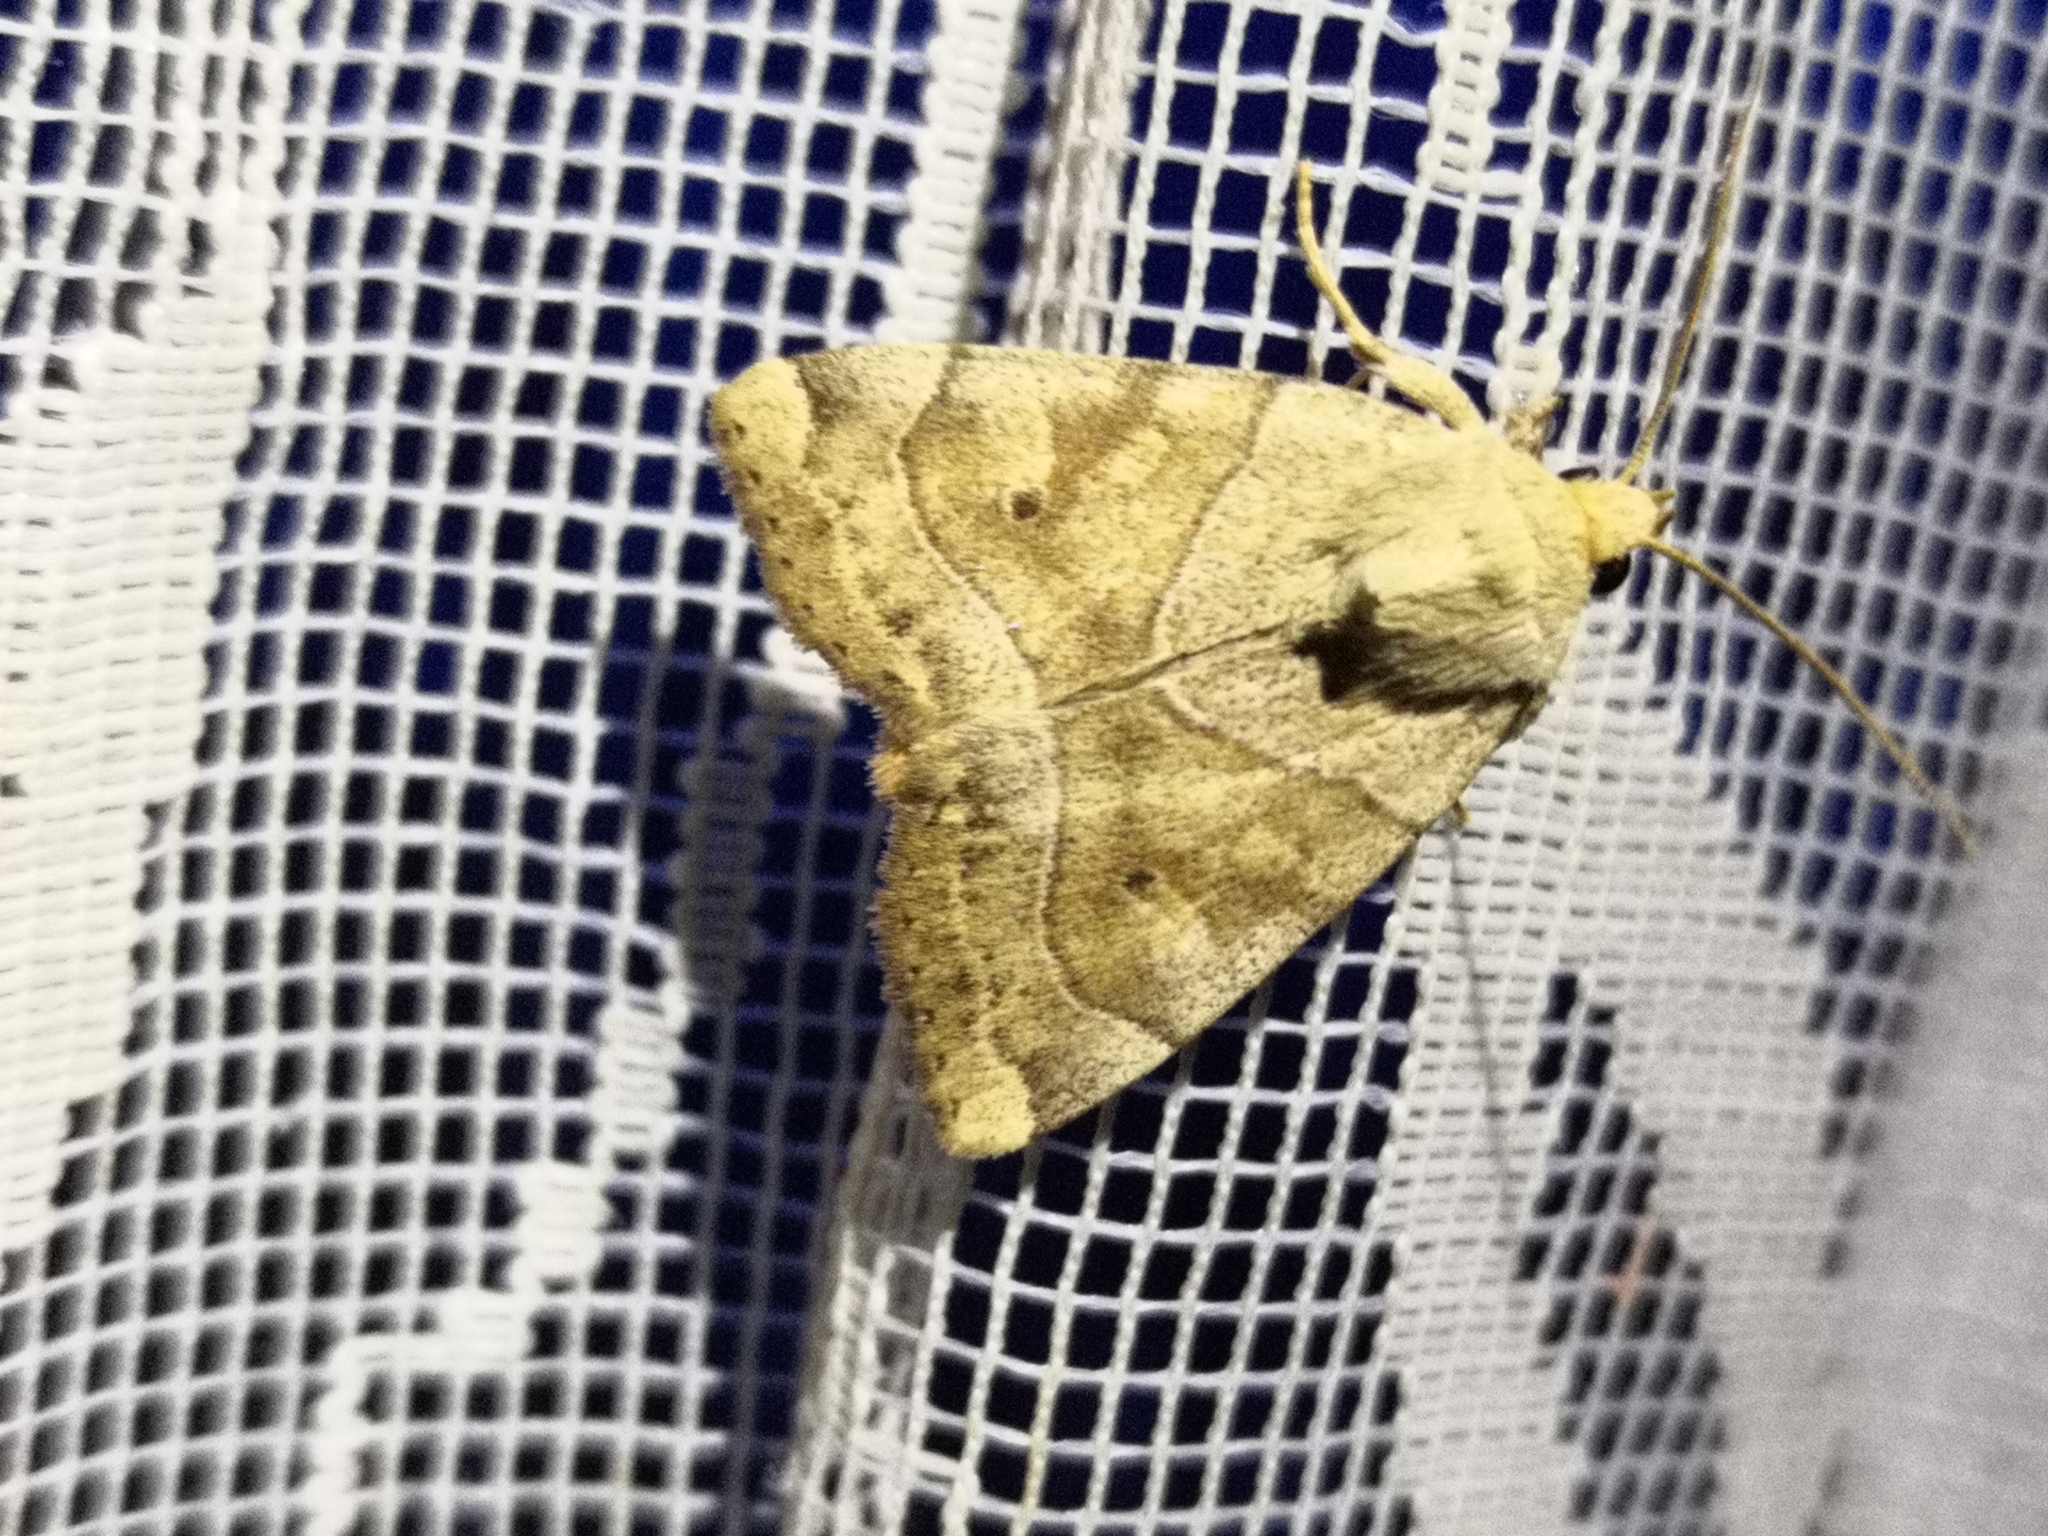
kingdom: Animalia
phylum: Arthropoda
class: Insecta
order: Lepidoptera
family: Noctuidae
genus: Cosmia
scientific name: Cosmia trapezina
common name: Dun-bar
